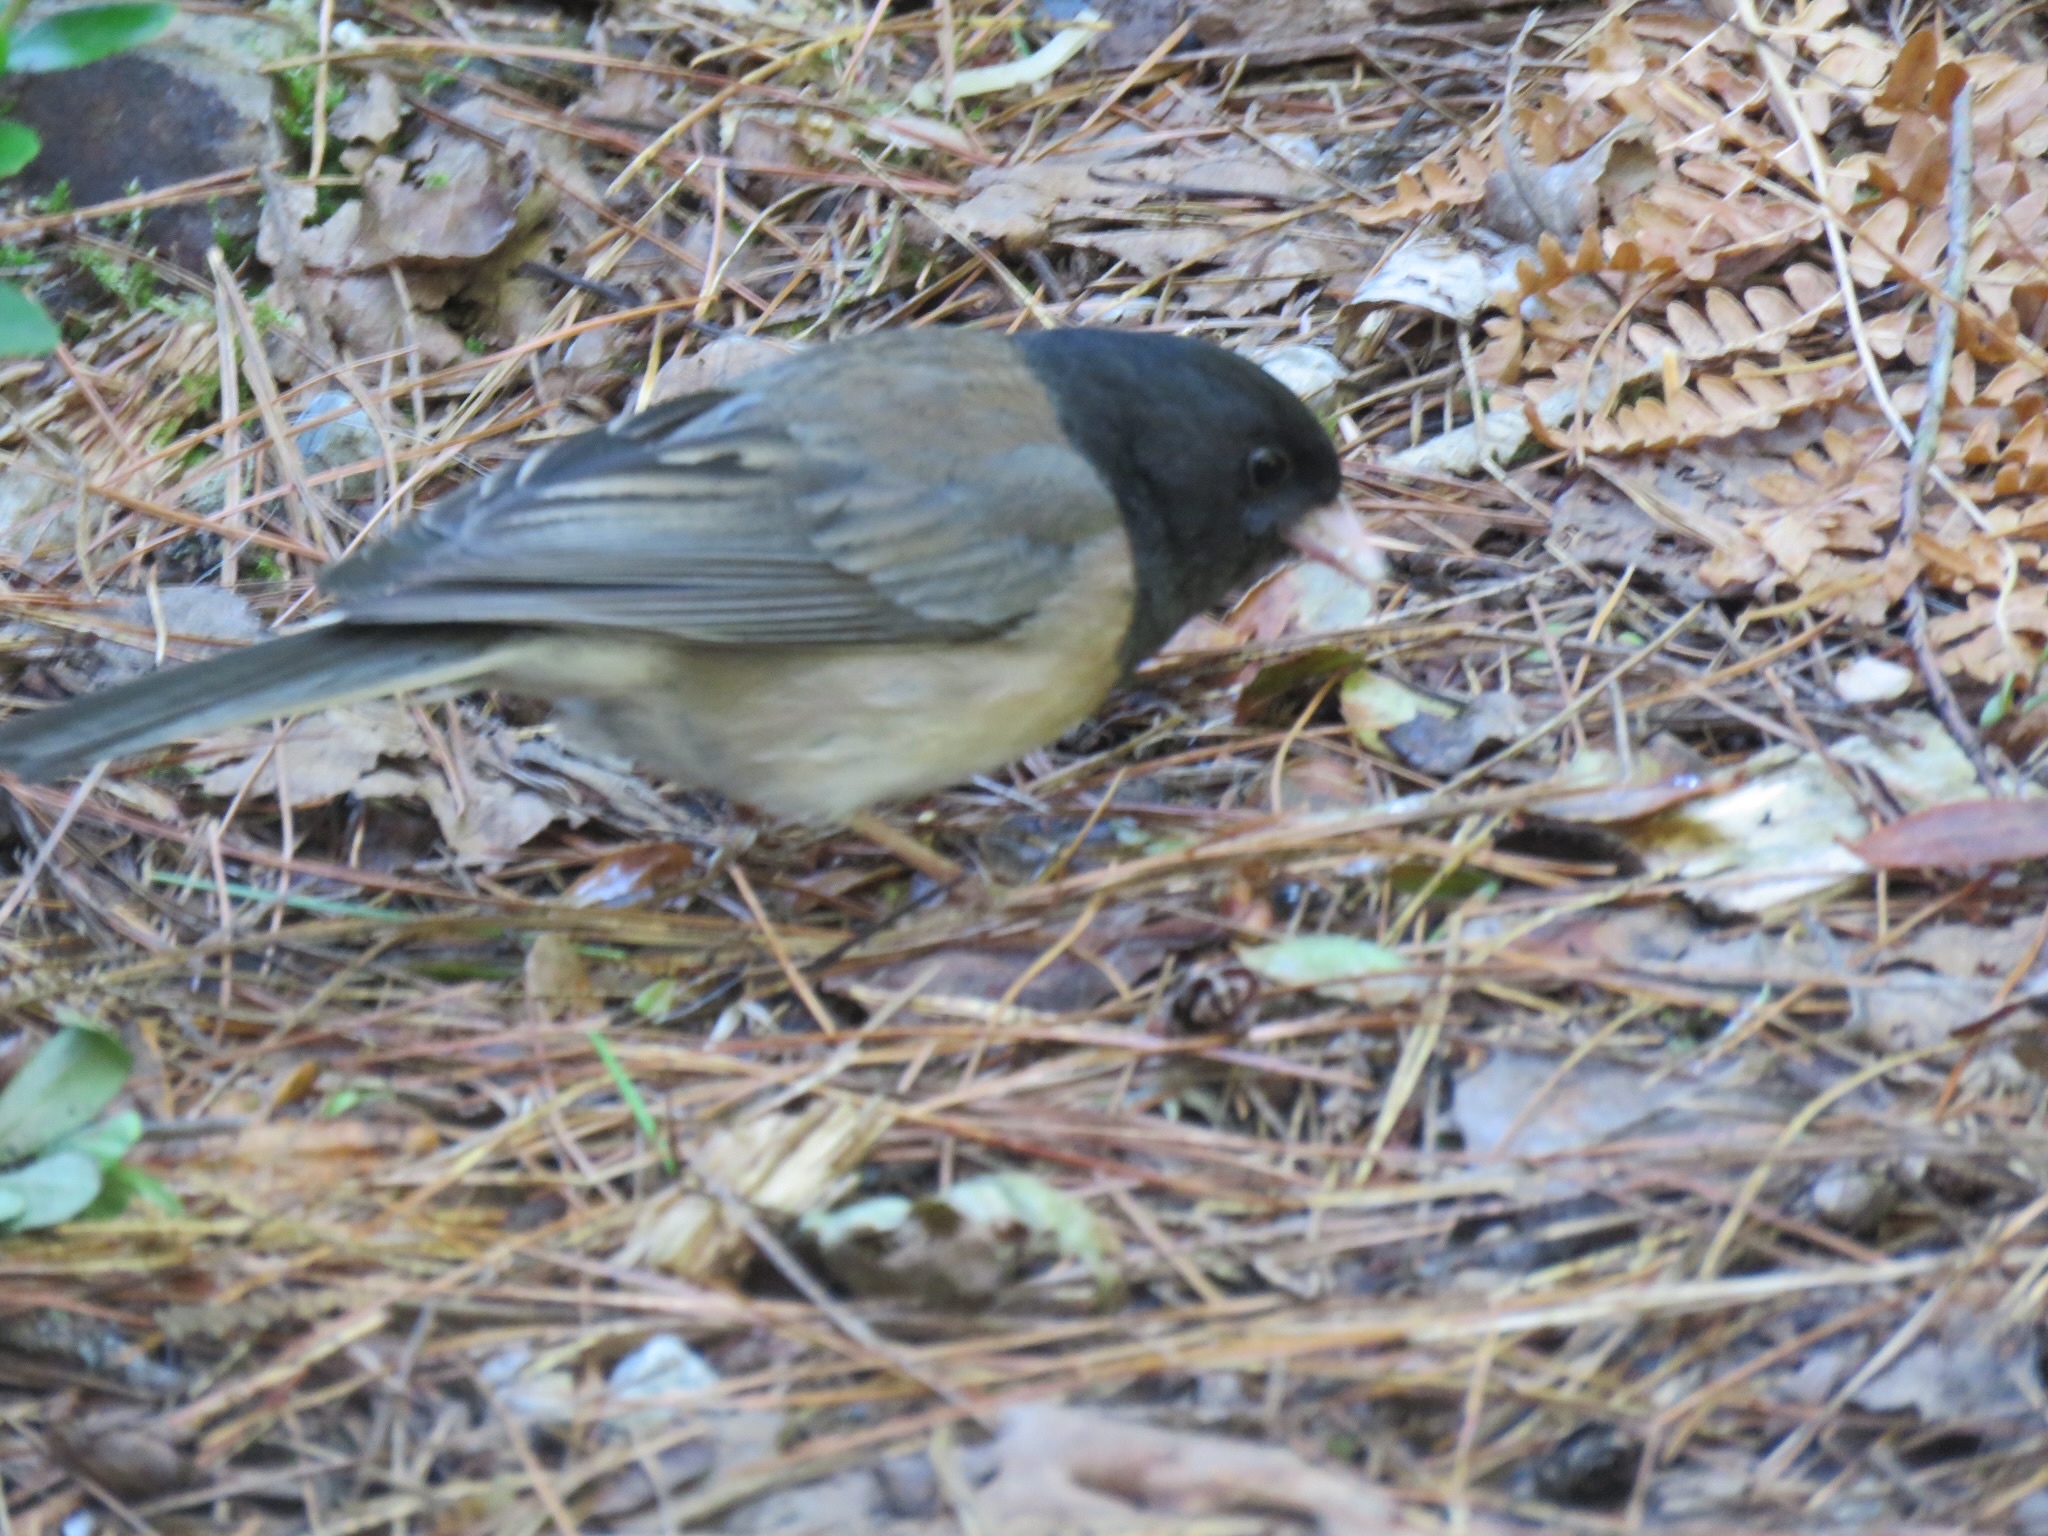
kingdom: Animalia
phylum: Chordata
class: Aves
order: Passeriformes
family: Passerellidae
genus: Junco
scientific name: Junco hyemalis
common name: Dark-eyed junco
